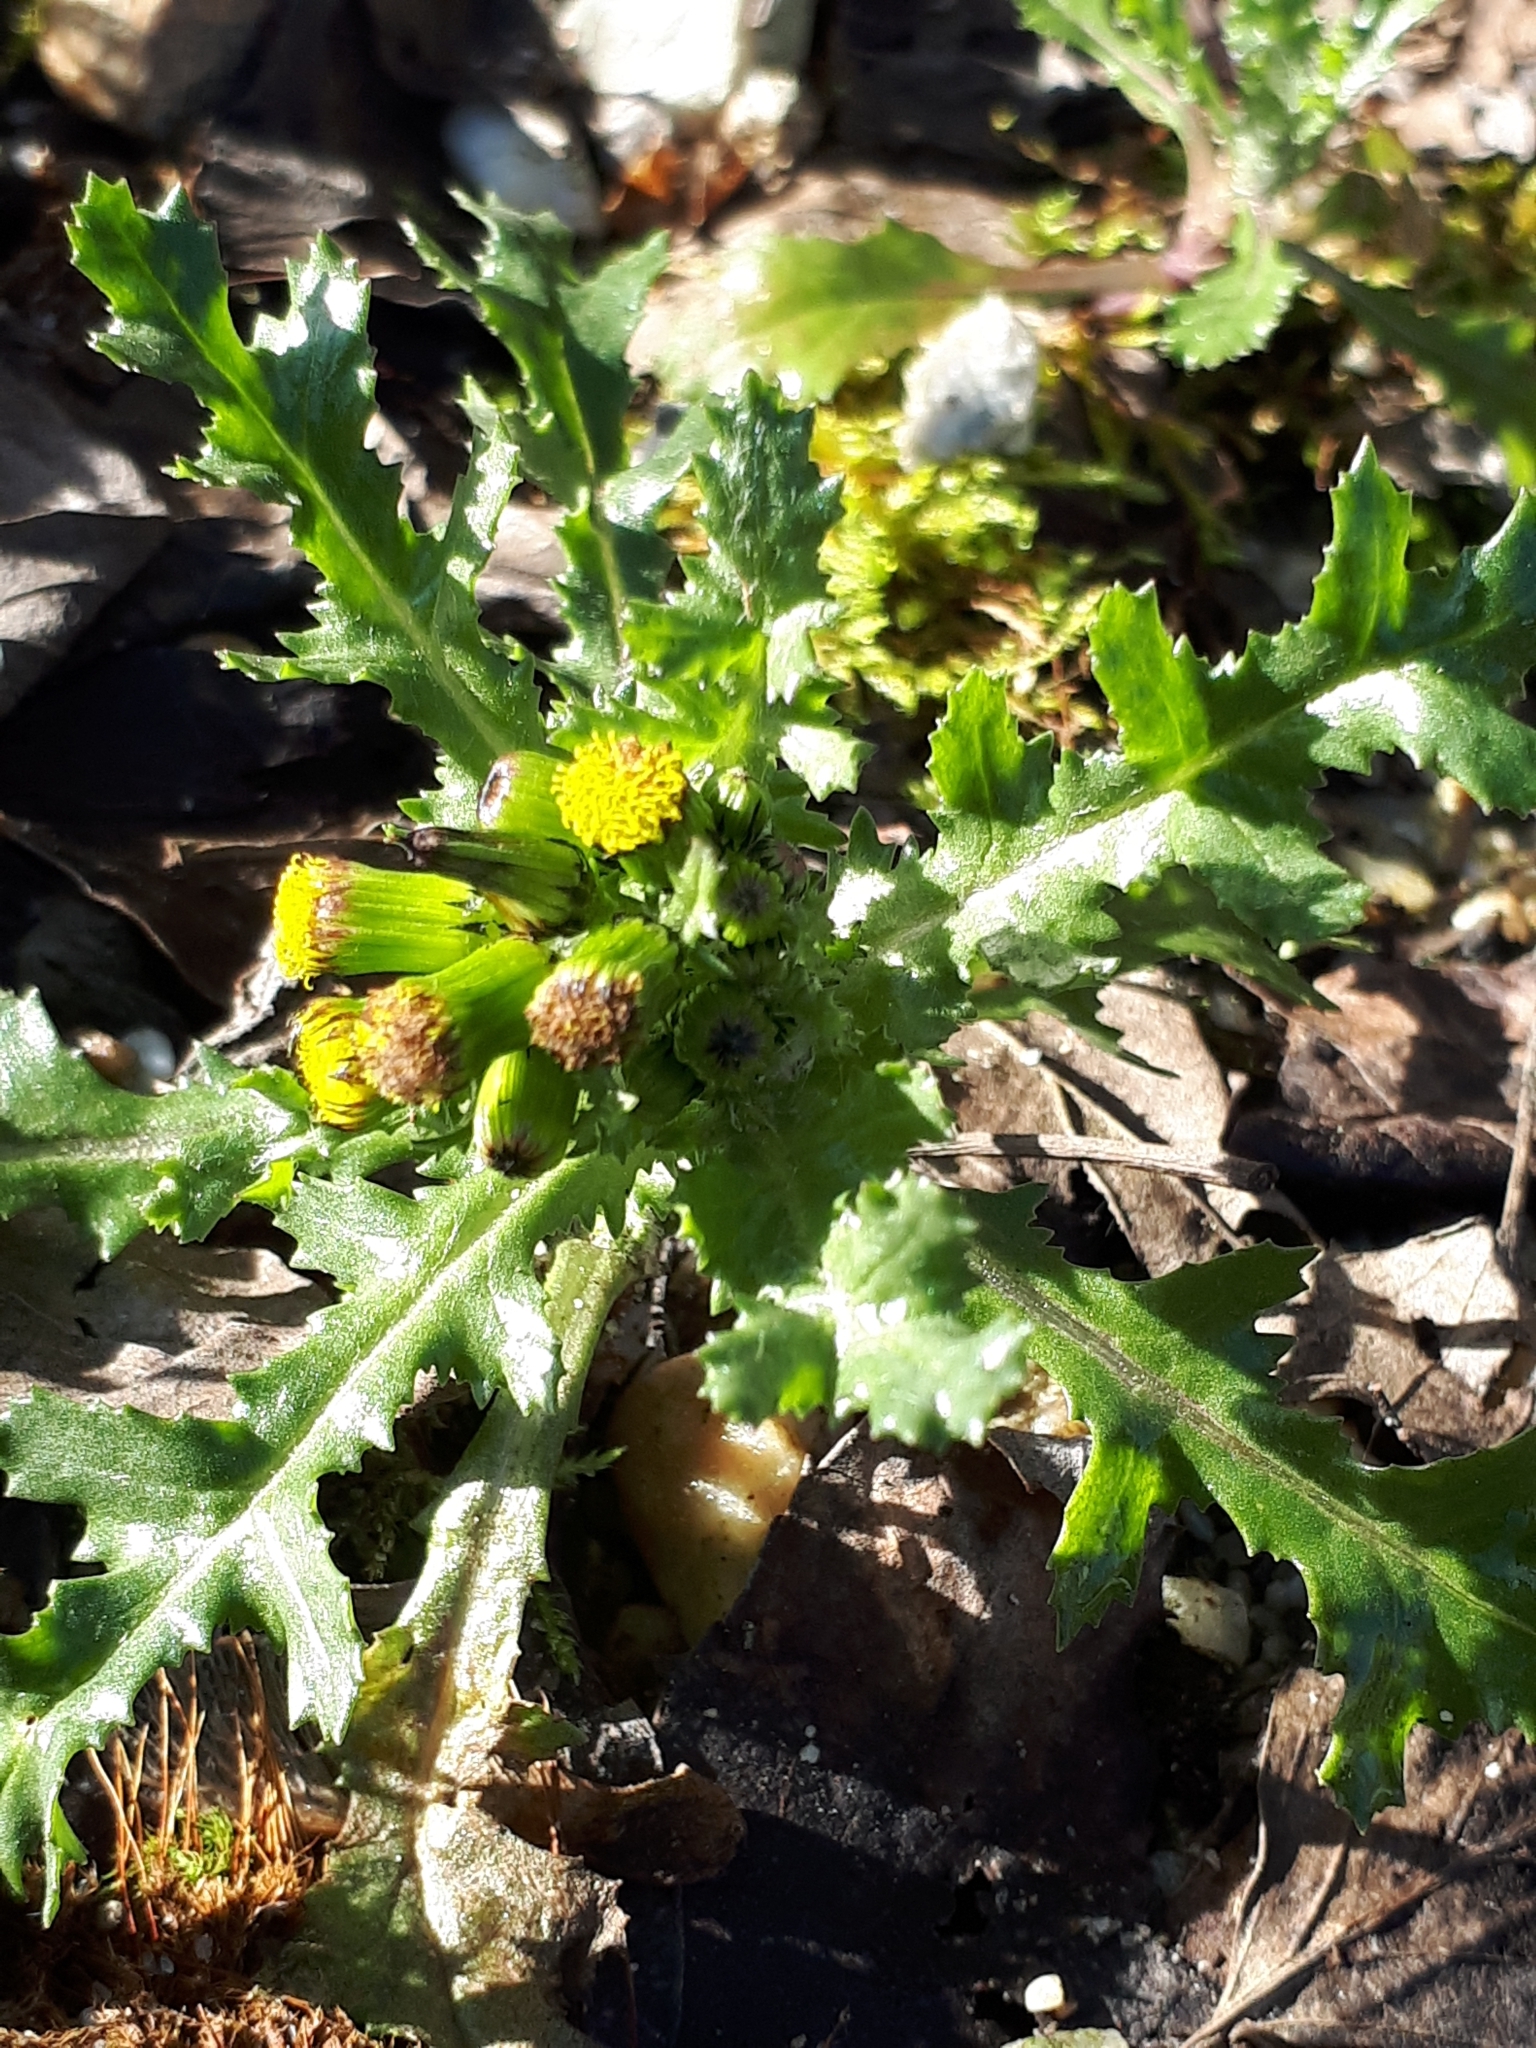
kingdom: Plantae
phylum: Tracheophyta
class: Magnoliopsida
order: Asterales
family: Asteraceae
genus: Senecio
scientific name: Senecio vulgaris
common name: Old-man-in-the-spring
